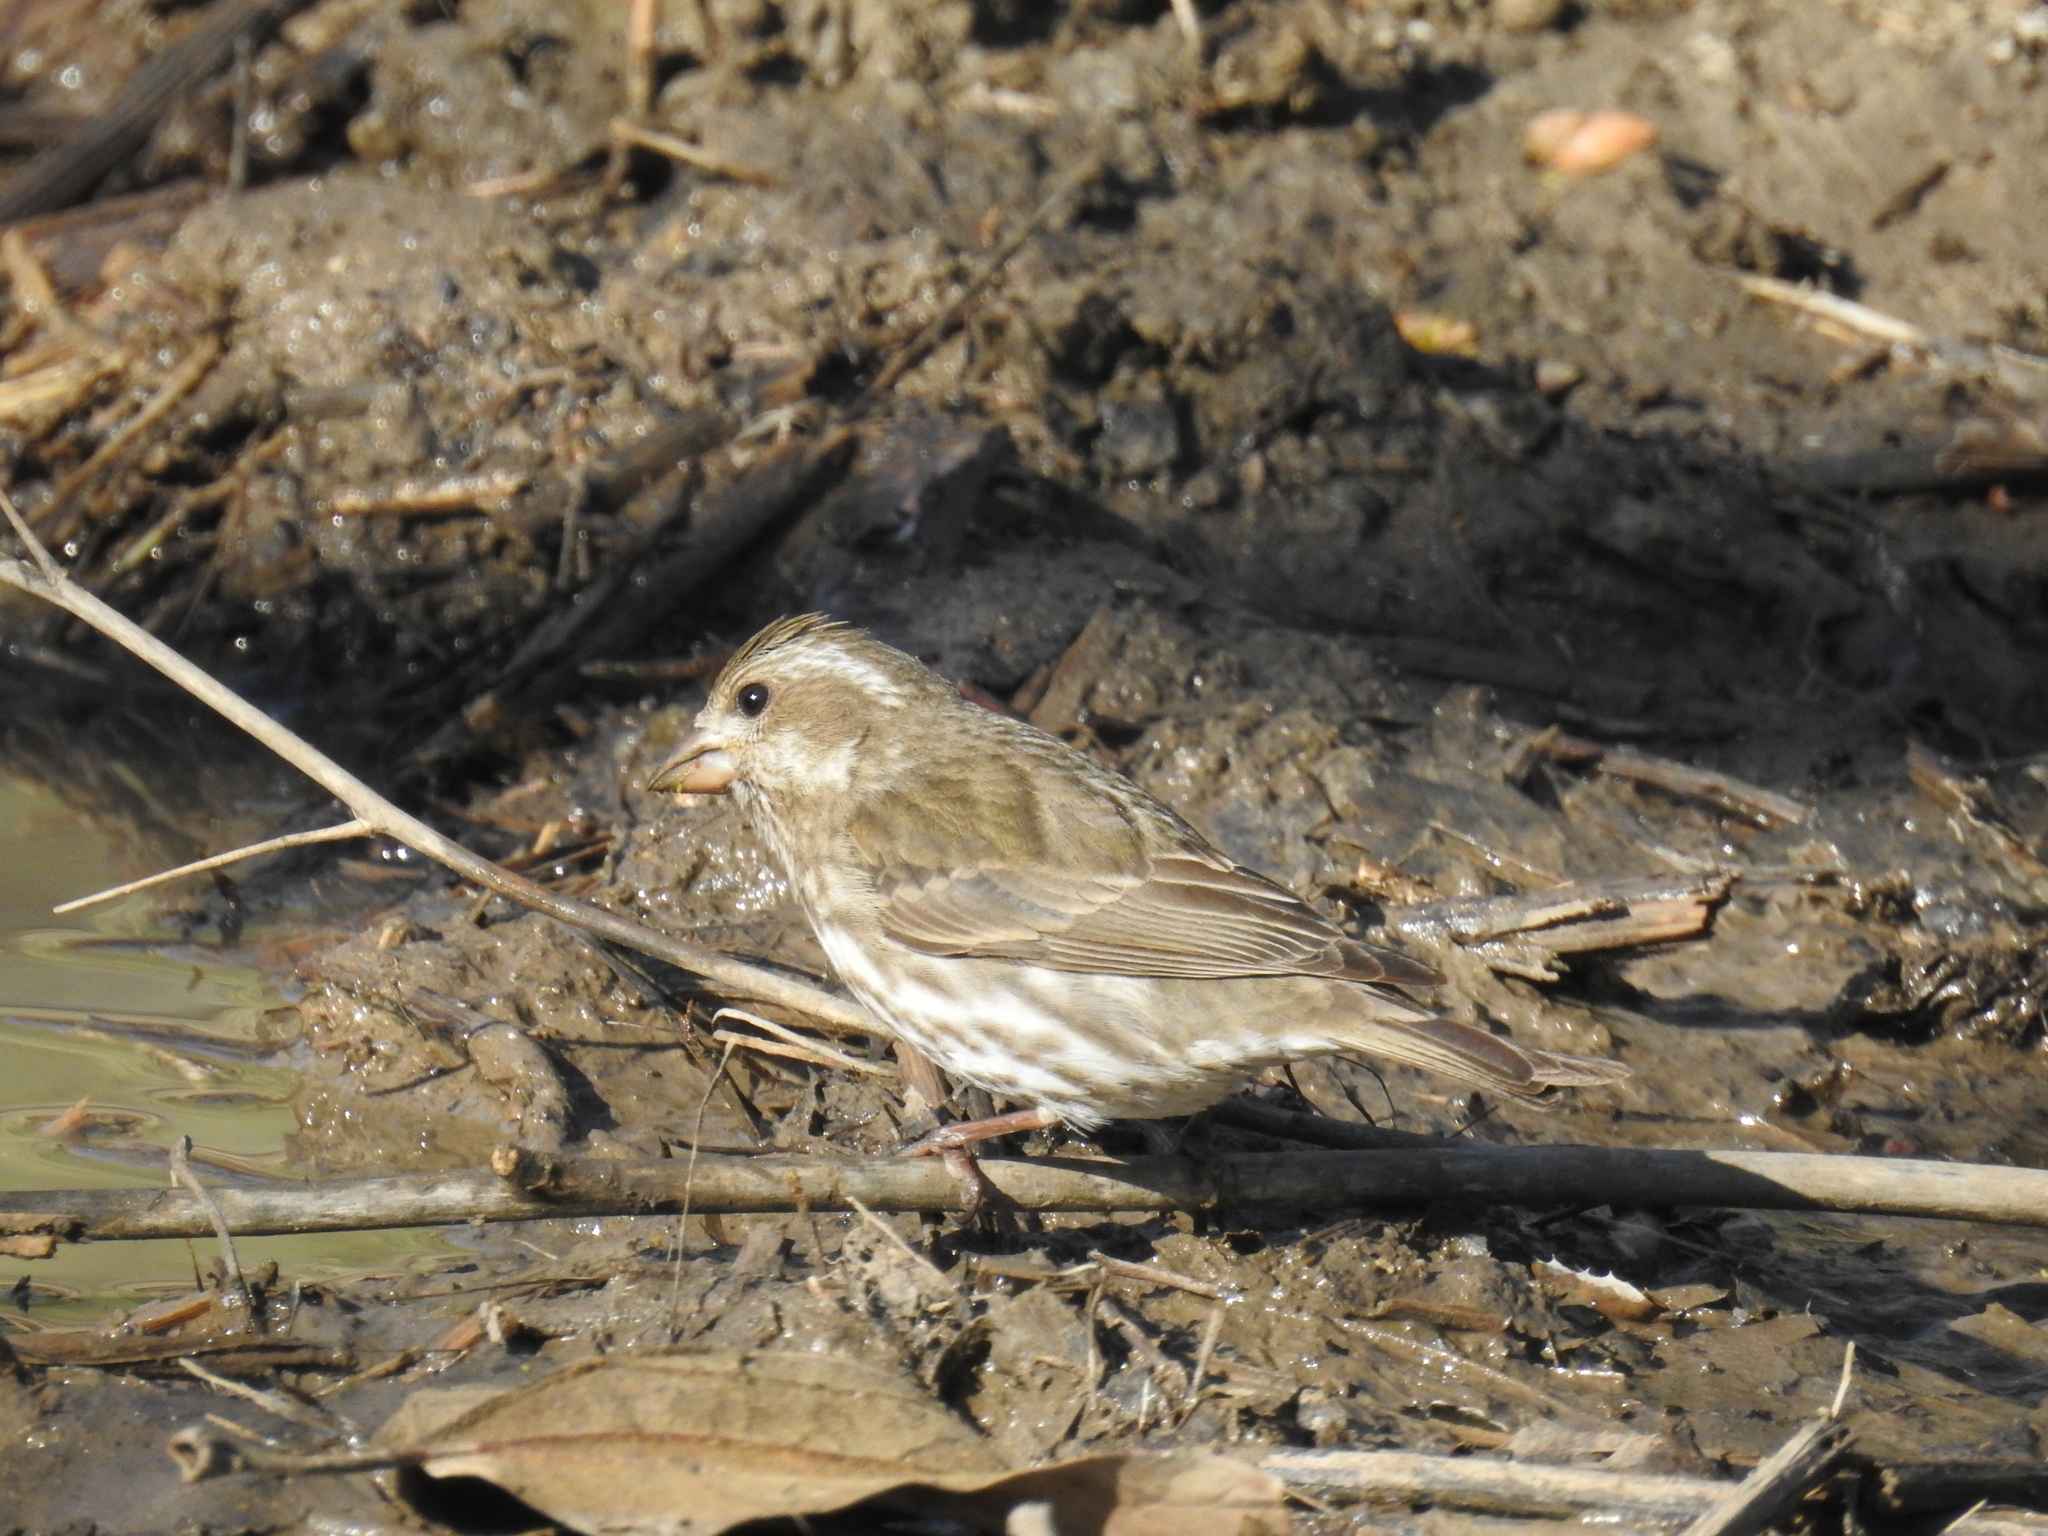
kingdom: Animalia
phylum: Chordata
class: Aves
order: Passeriformes
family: Fringillidae
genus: Haemorhous
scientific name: Haemorhous purpureus
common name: Purple finch
